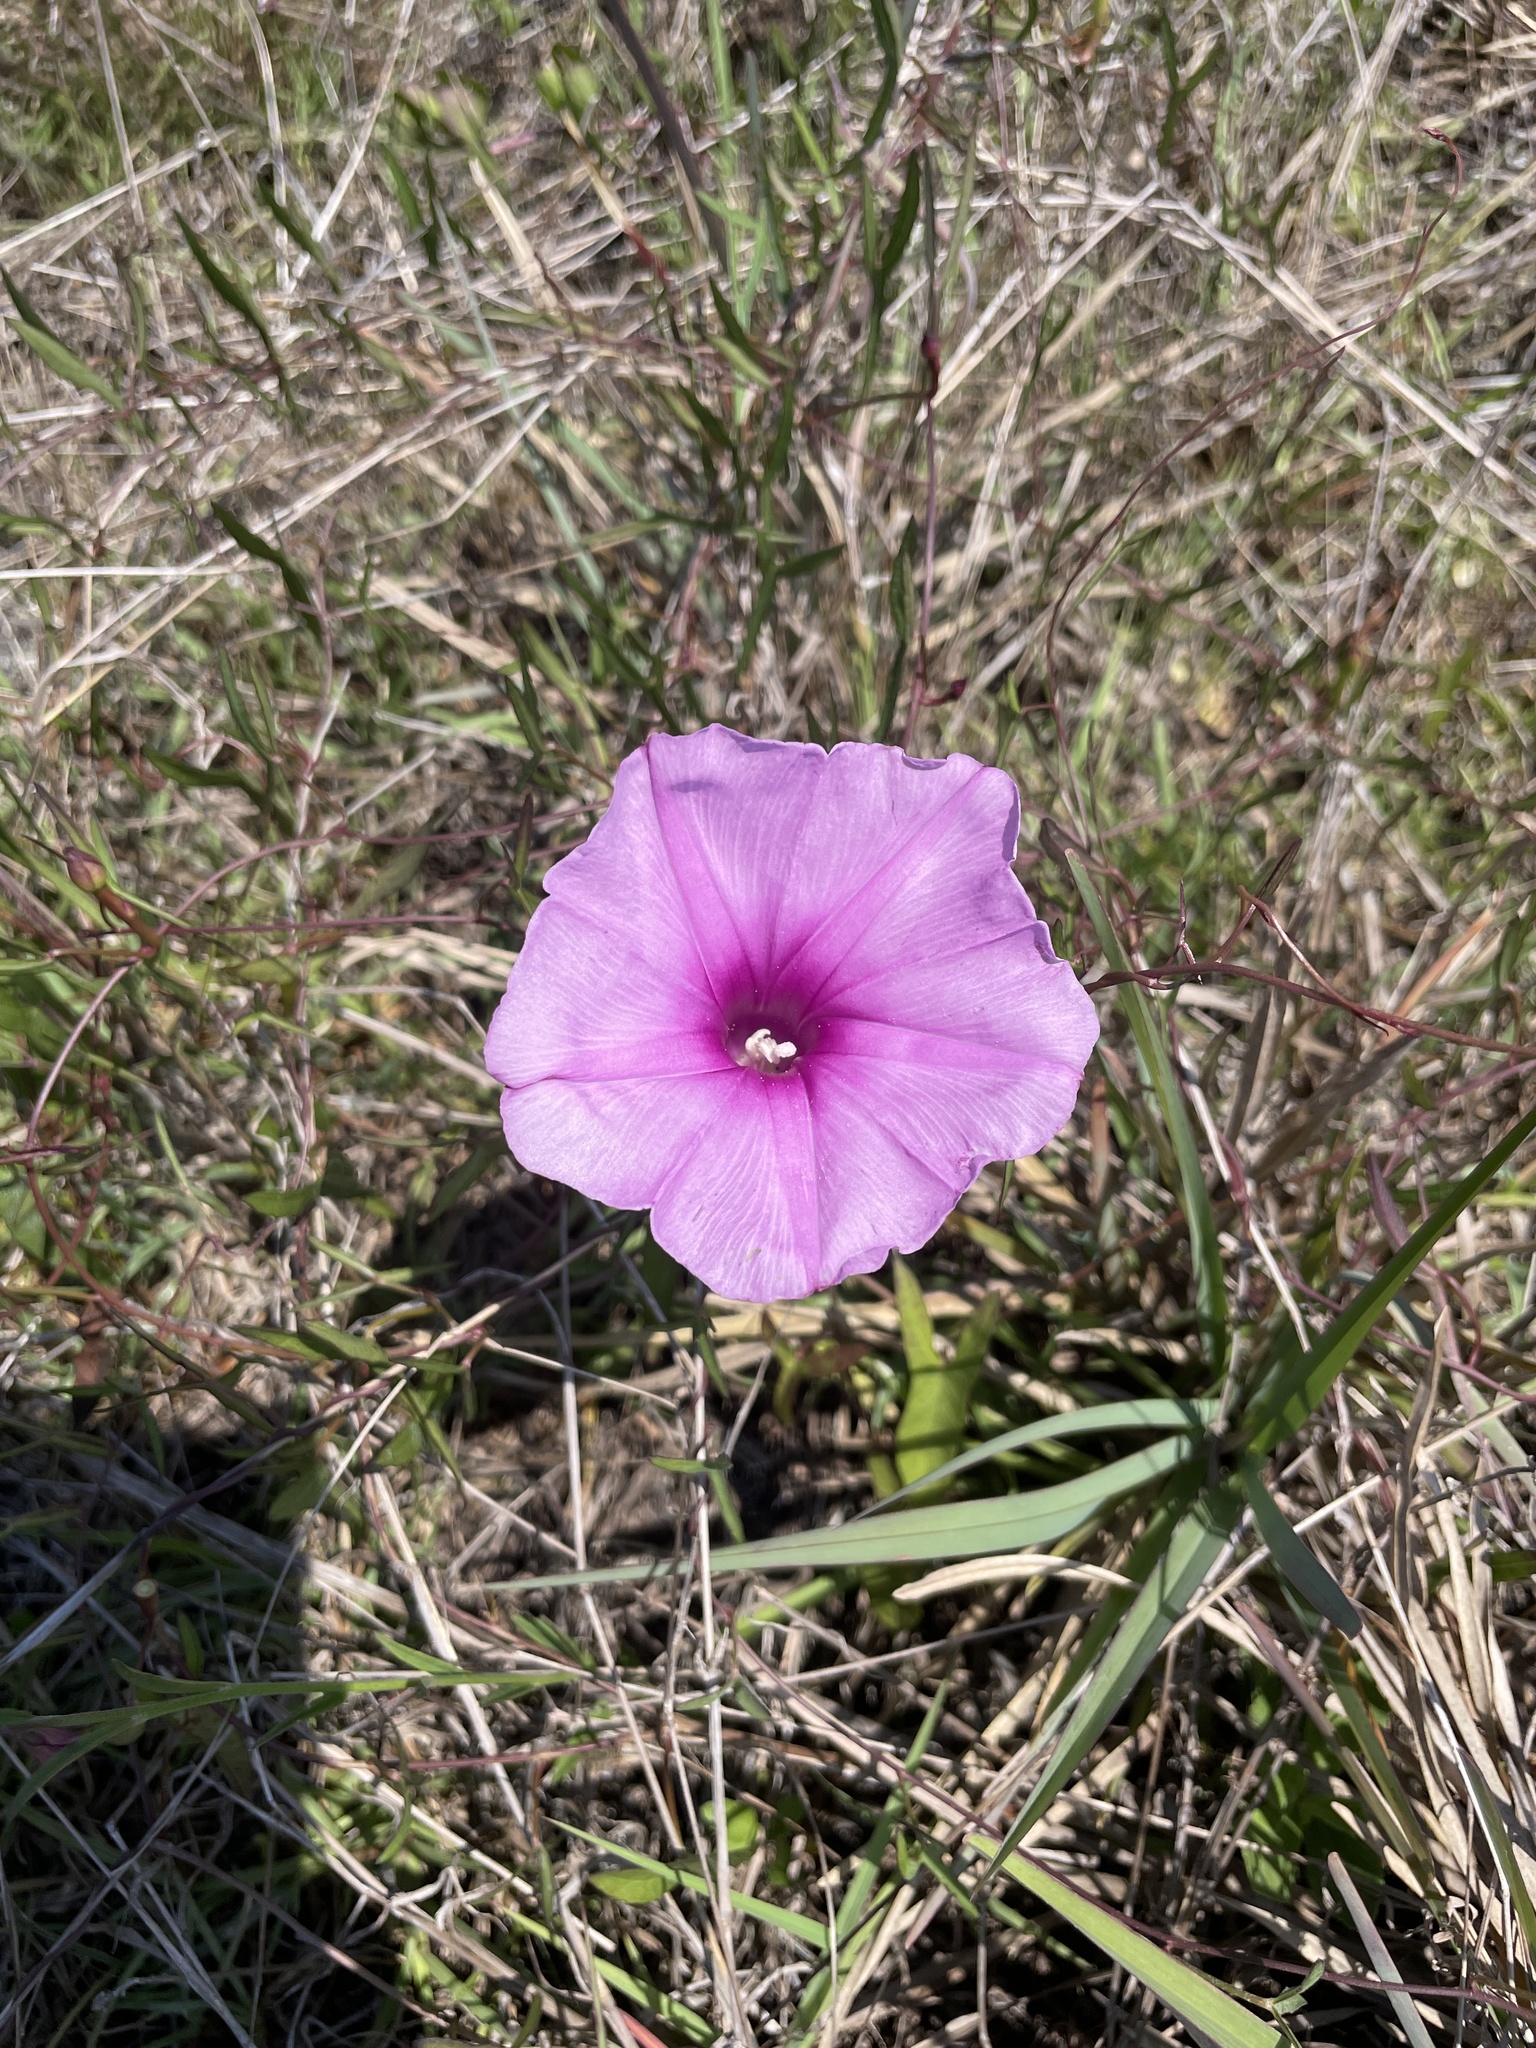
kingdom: Plantae
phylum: Tracheophyta
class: Magnoliopsida
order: Solanales
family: Convolvulaceae
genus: Ipomoea
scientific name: Ipomoea sagittata
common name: Saltmarsh morning glory
